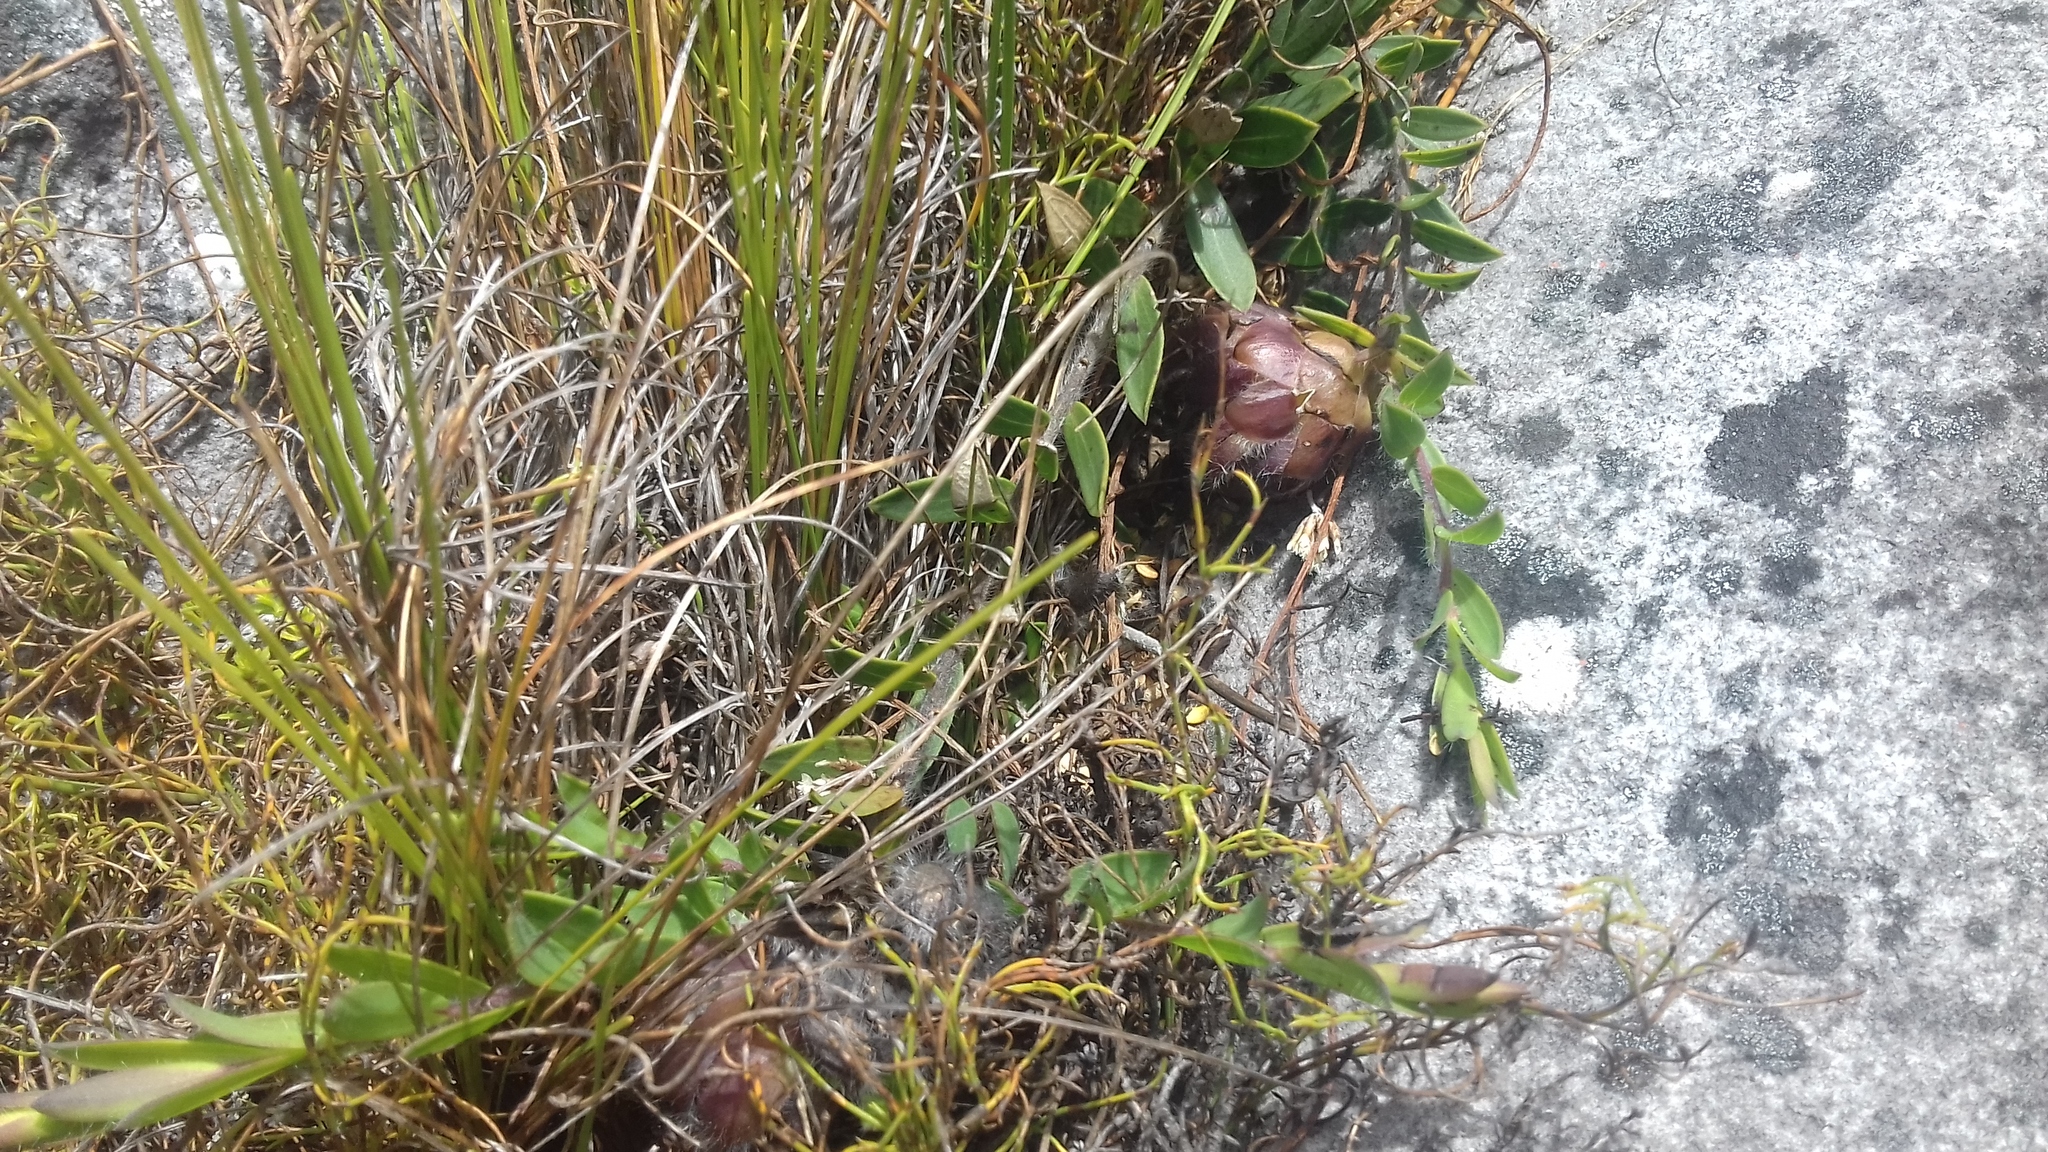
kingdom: Plantae
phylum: Tracheophyta
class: Magnoliopsida
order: Fabales
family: Fabaceae
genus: Liparia
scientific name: Liparia parva
